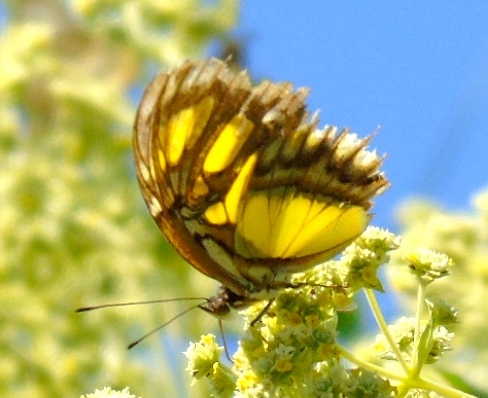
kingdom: Animalia
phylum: Arthropoda
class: Insecta
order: Lepidoptera
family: Nymphalidae
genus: Siproeta
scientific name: Siproeta stelenes
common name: Malachite
